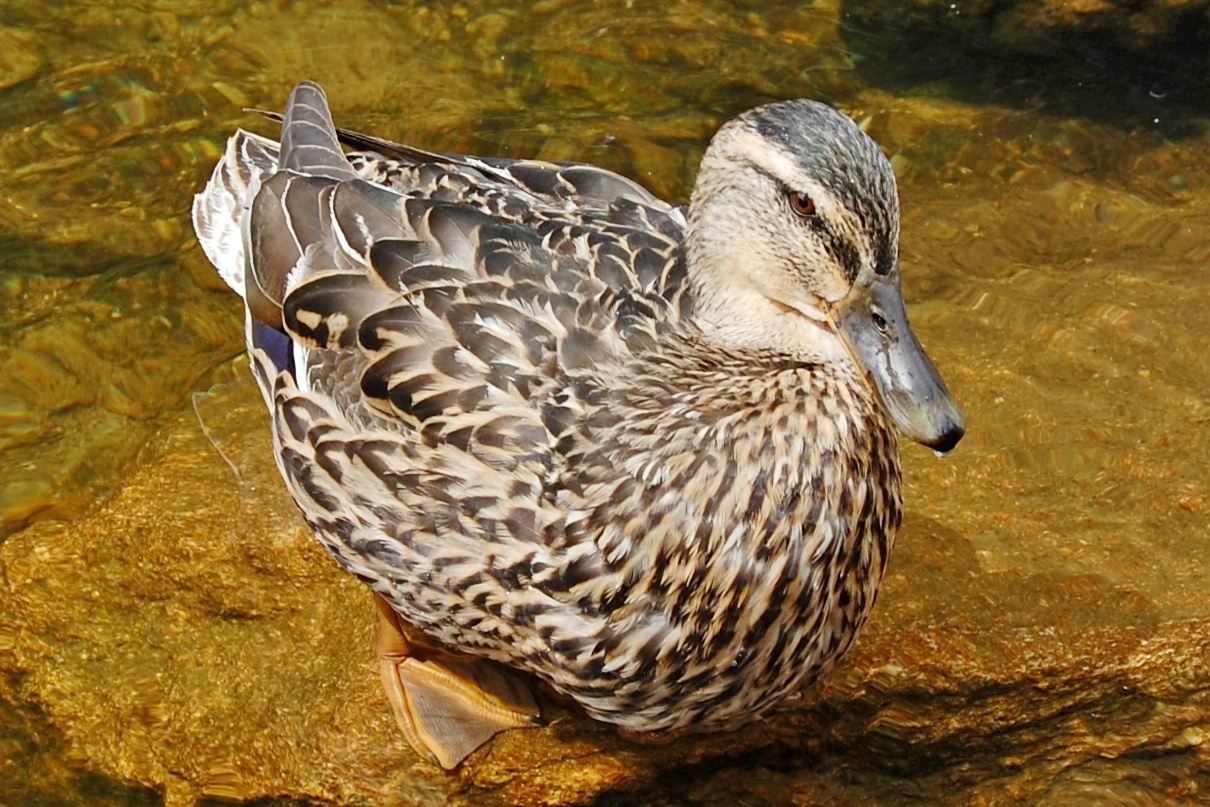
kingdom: Animalia
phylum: Chordata
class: Aves
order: Anseriformes
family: Anatidae
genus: Anas
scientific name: Anas platyrhynchos
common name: Mallard
